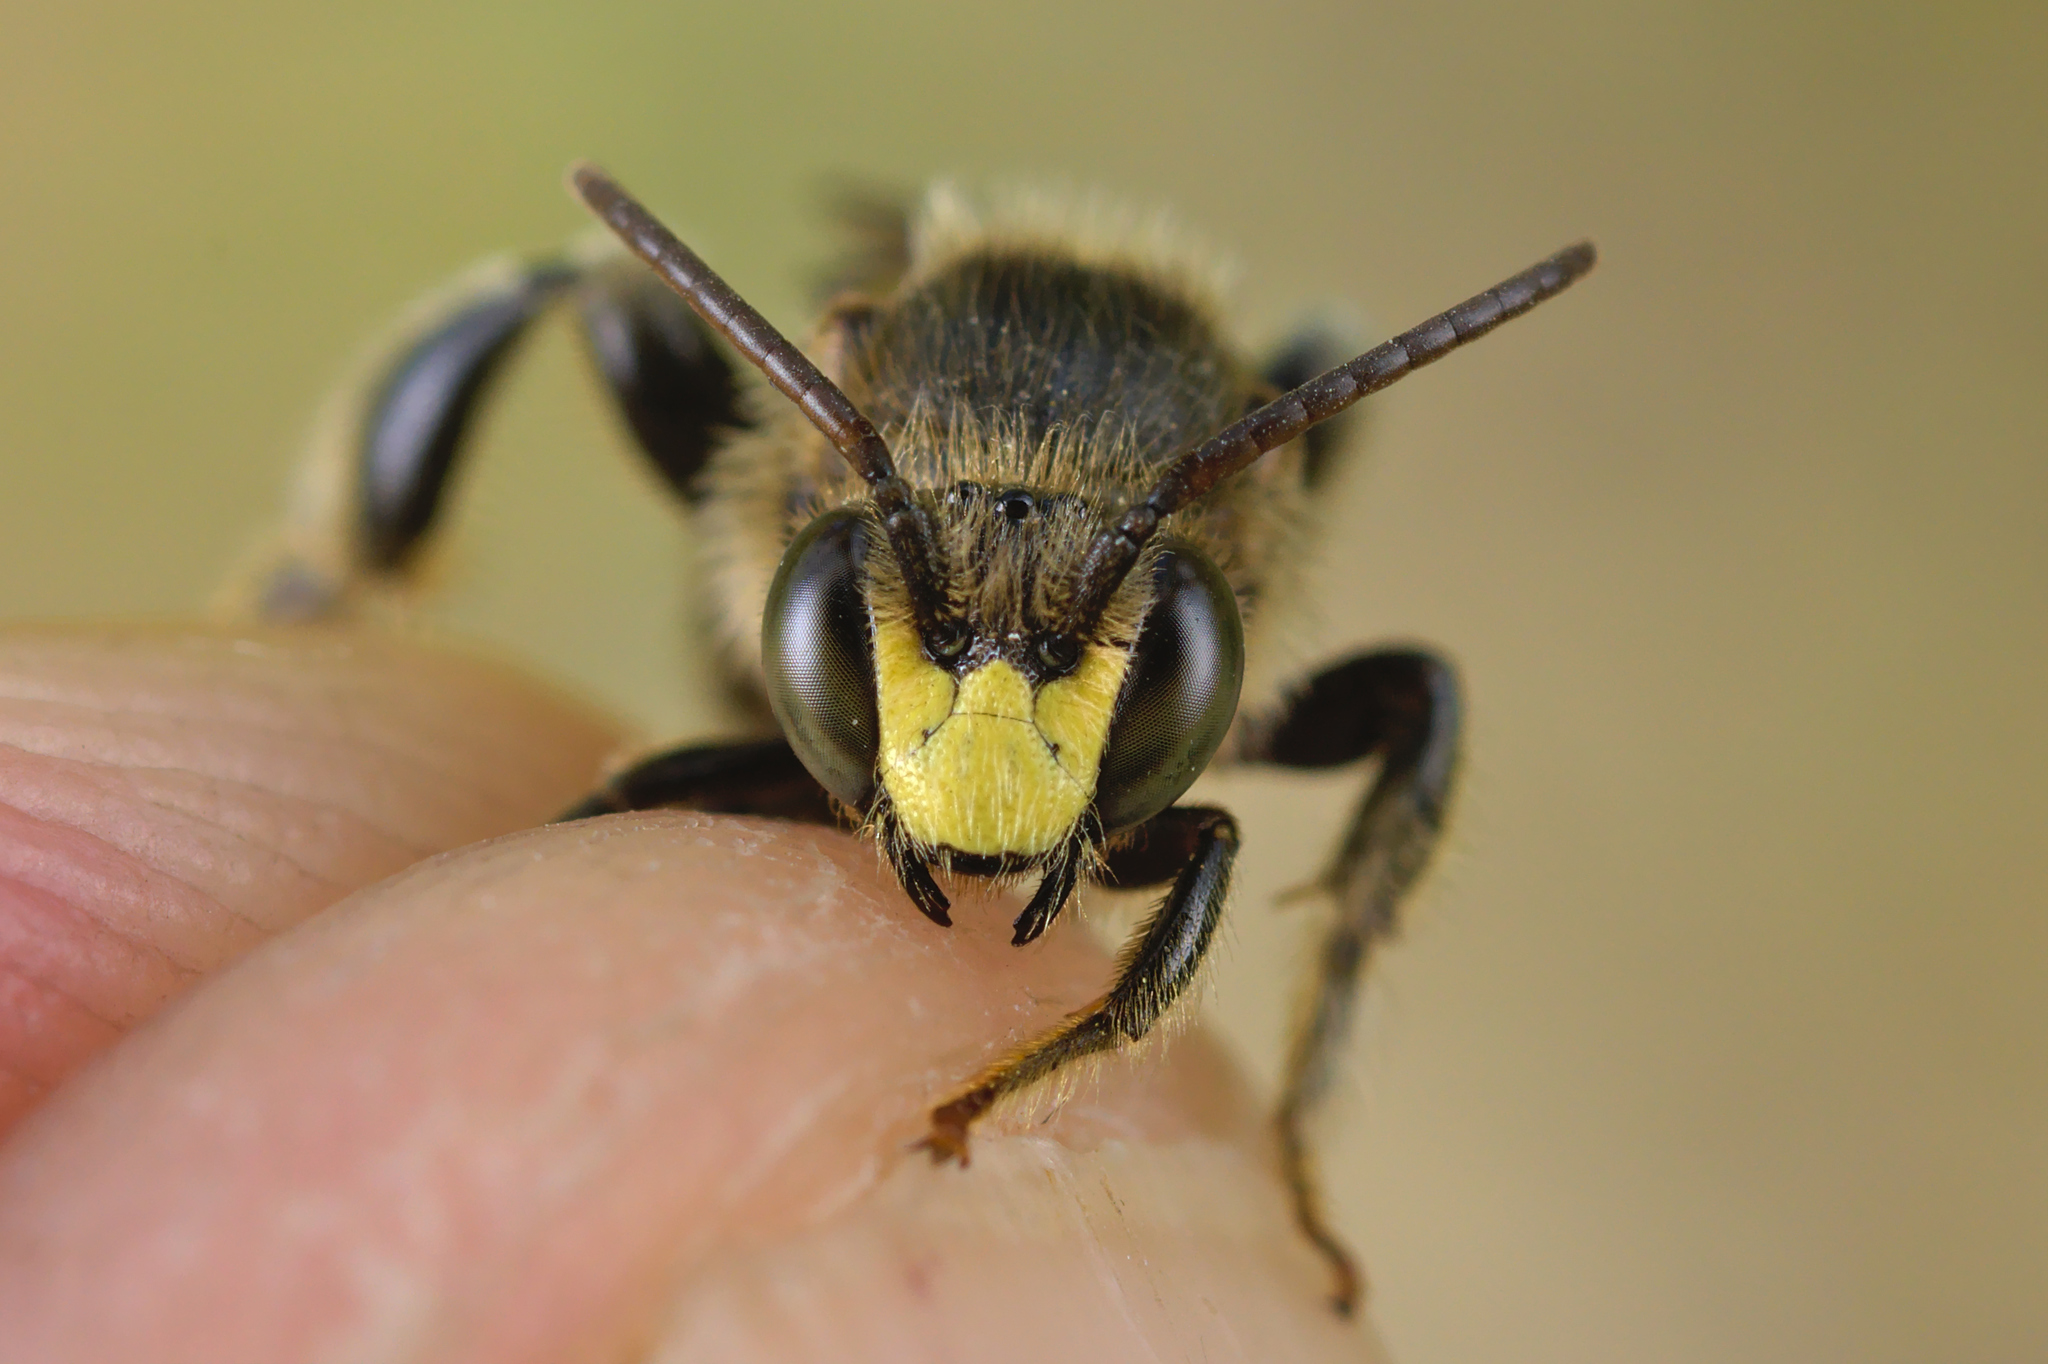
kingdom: Animalia
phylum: Arthropoda
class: Insecta
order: Hymenoptera
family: Melittidae
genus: Macropis
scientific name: Macropis europaea
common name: Yellow loosestrife bee
